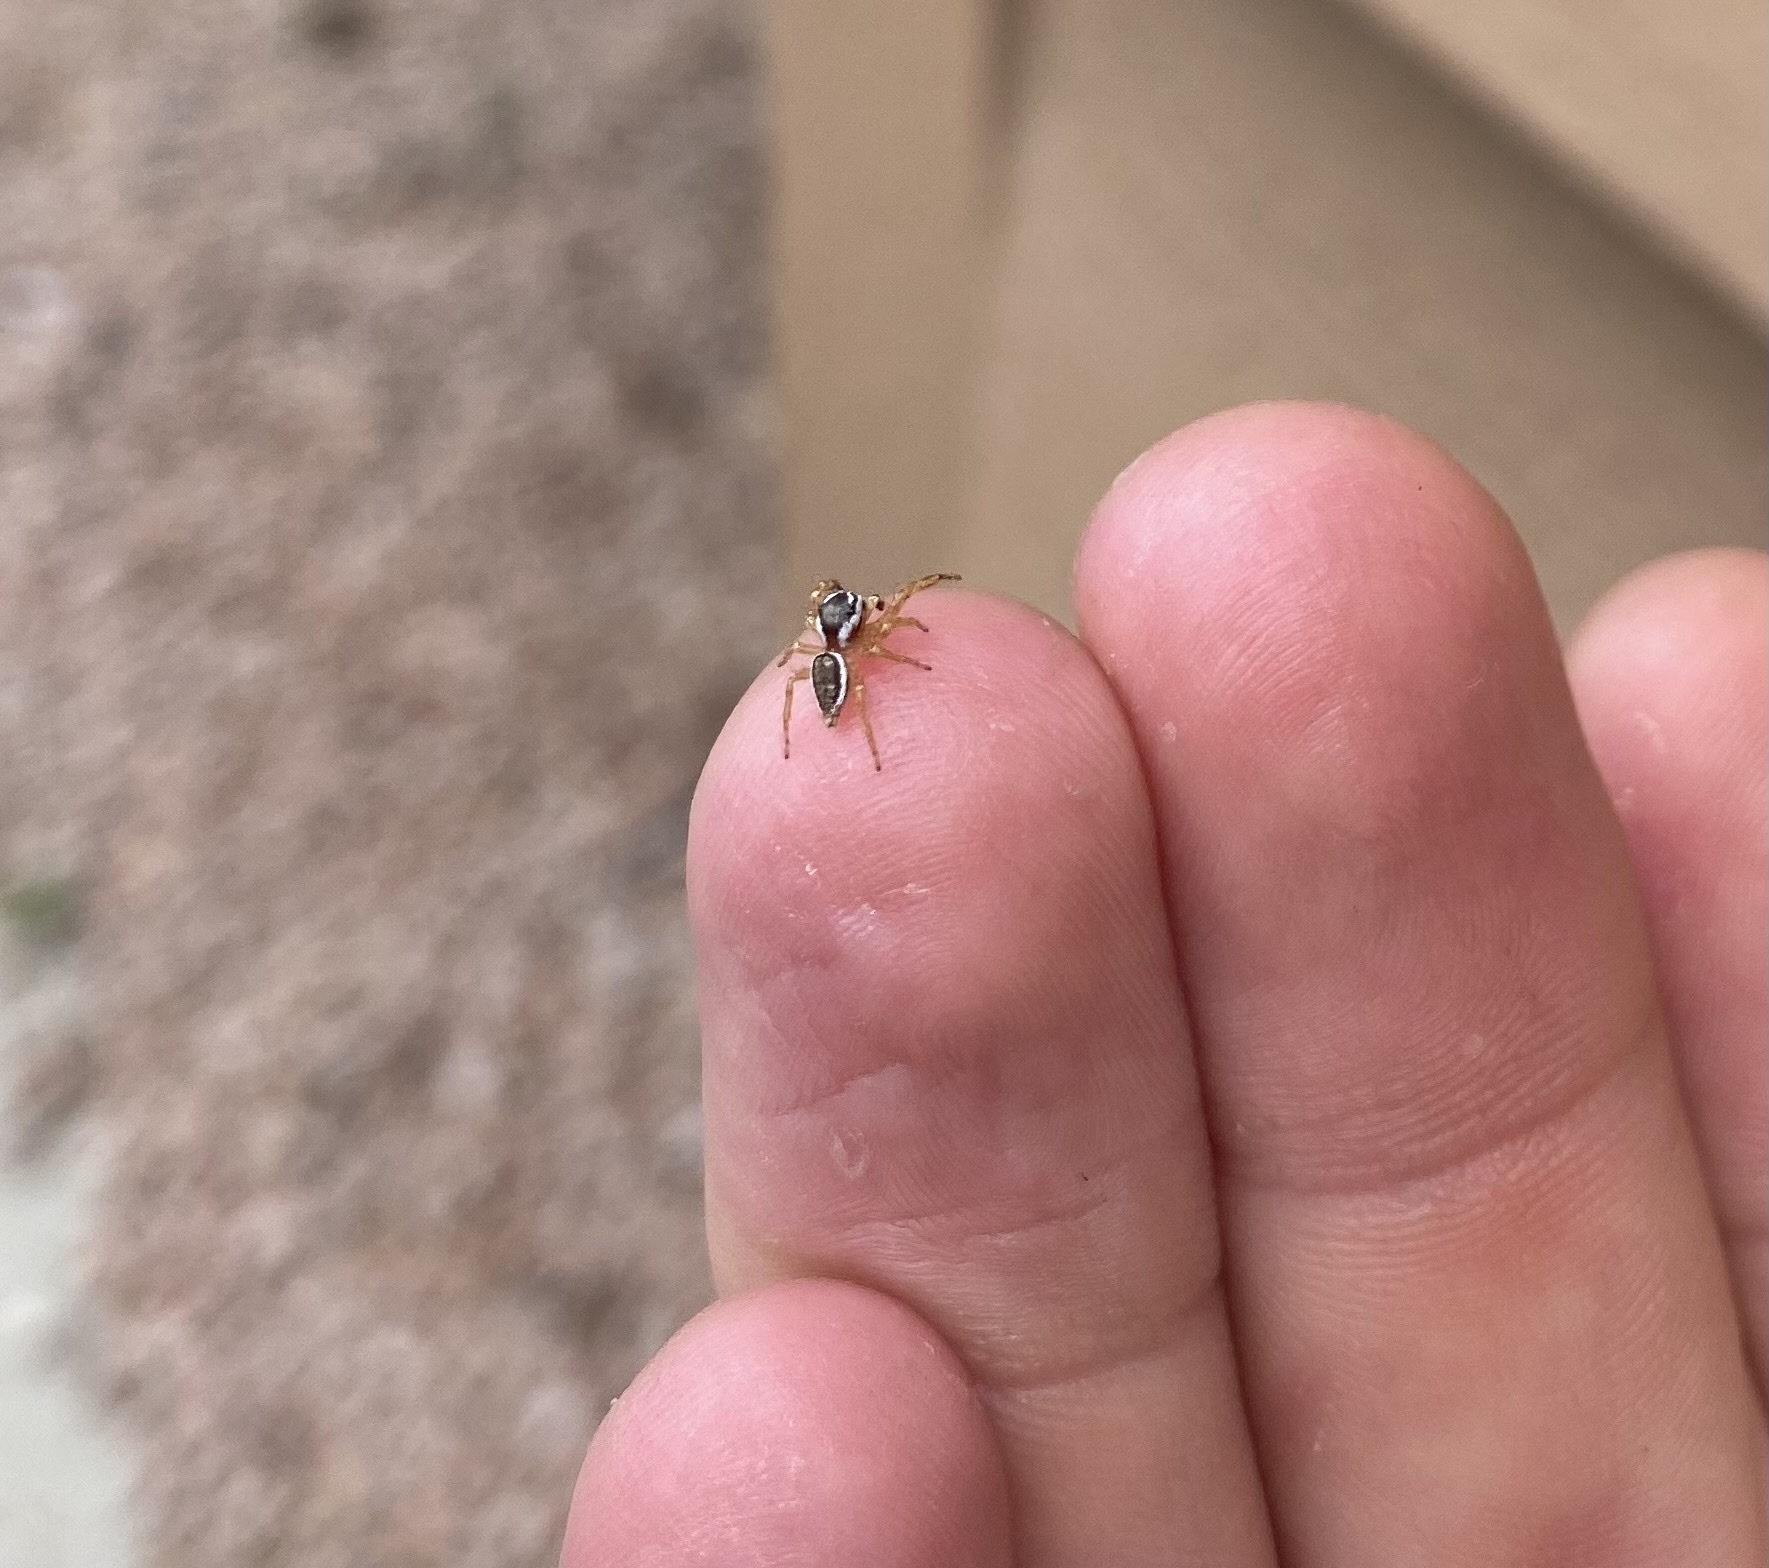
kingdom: Animalia
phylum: Arthropoda
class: Arachnida
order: Araneae
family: Salticidae
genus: Pelegrina
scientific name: Pelegrina kastoni
